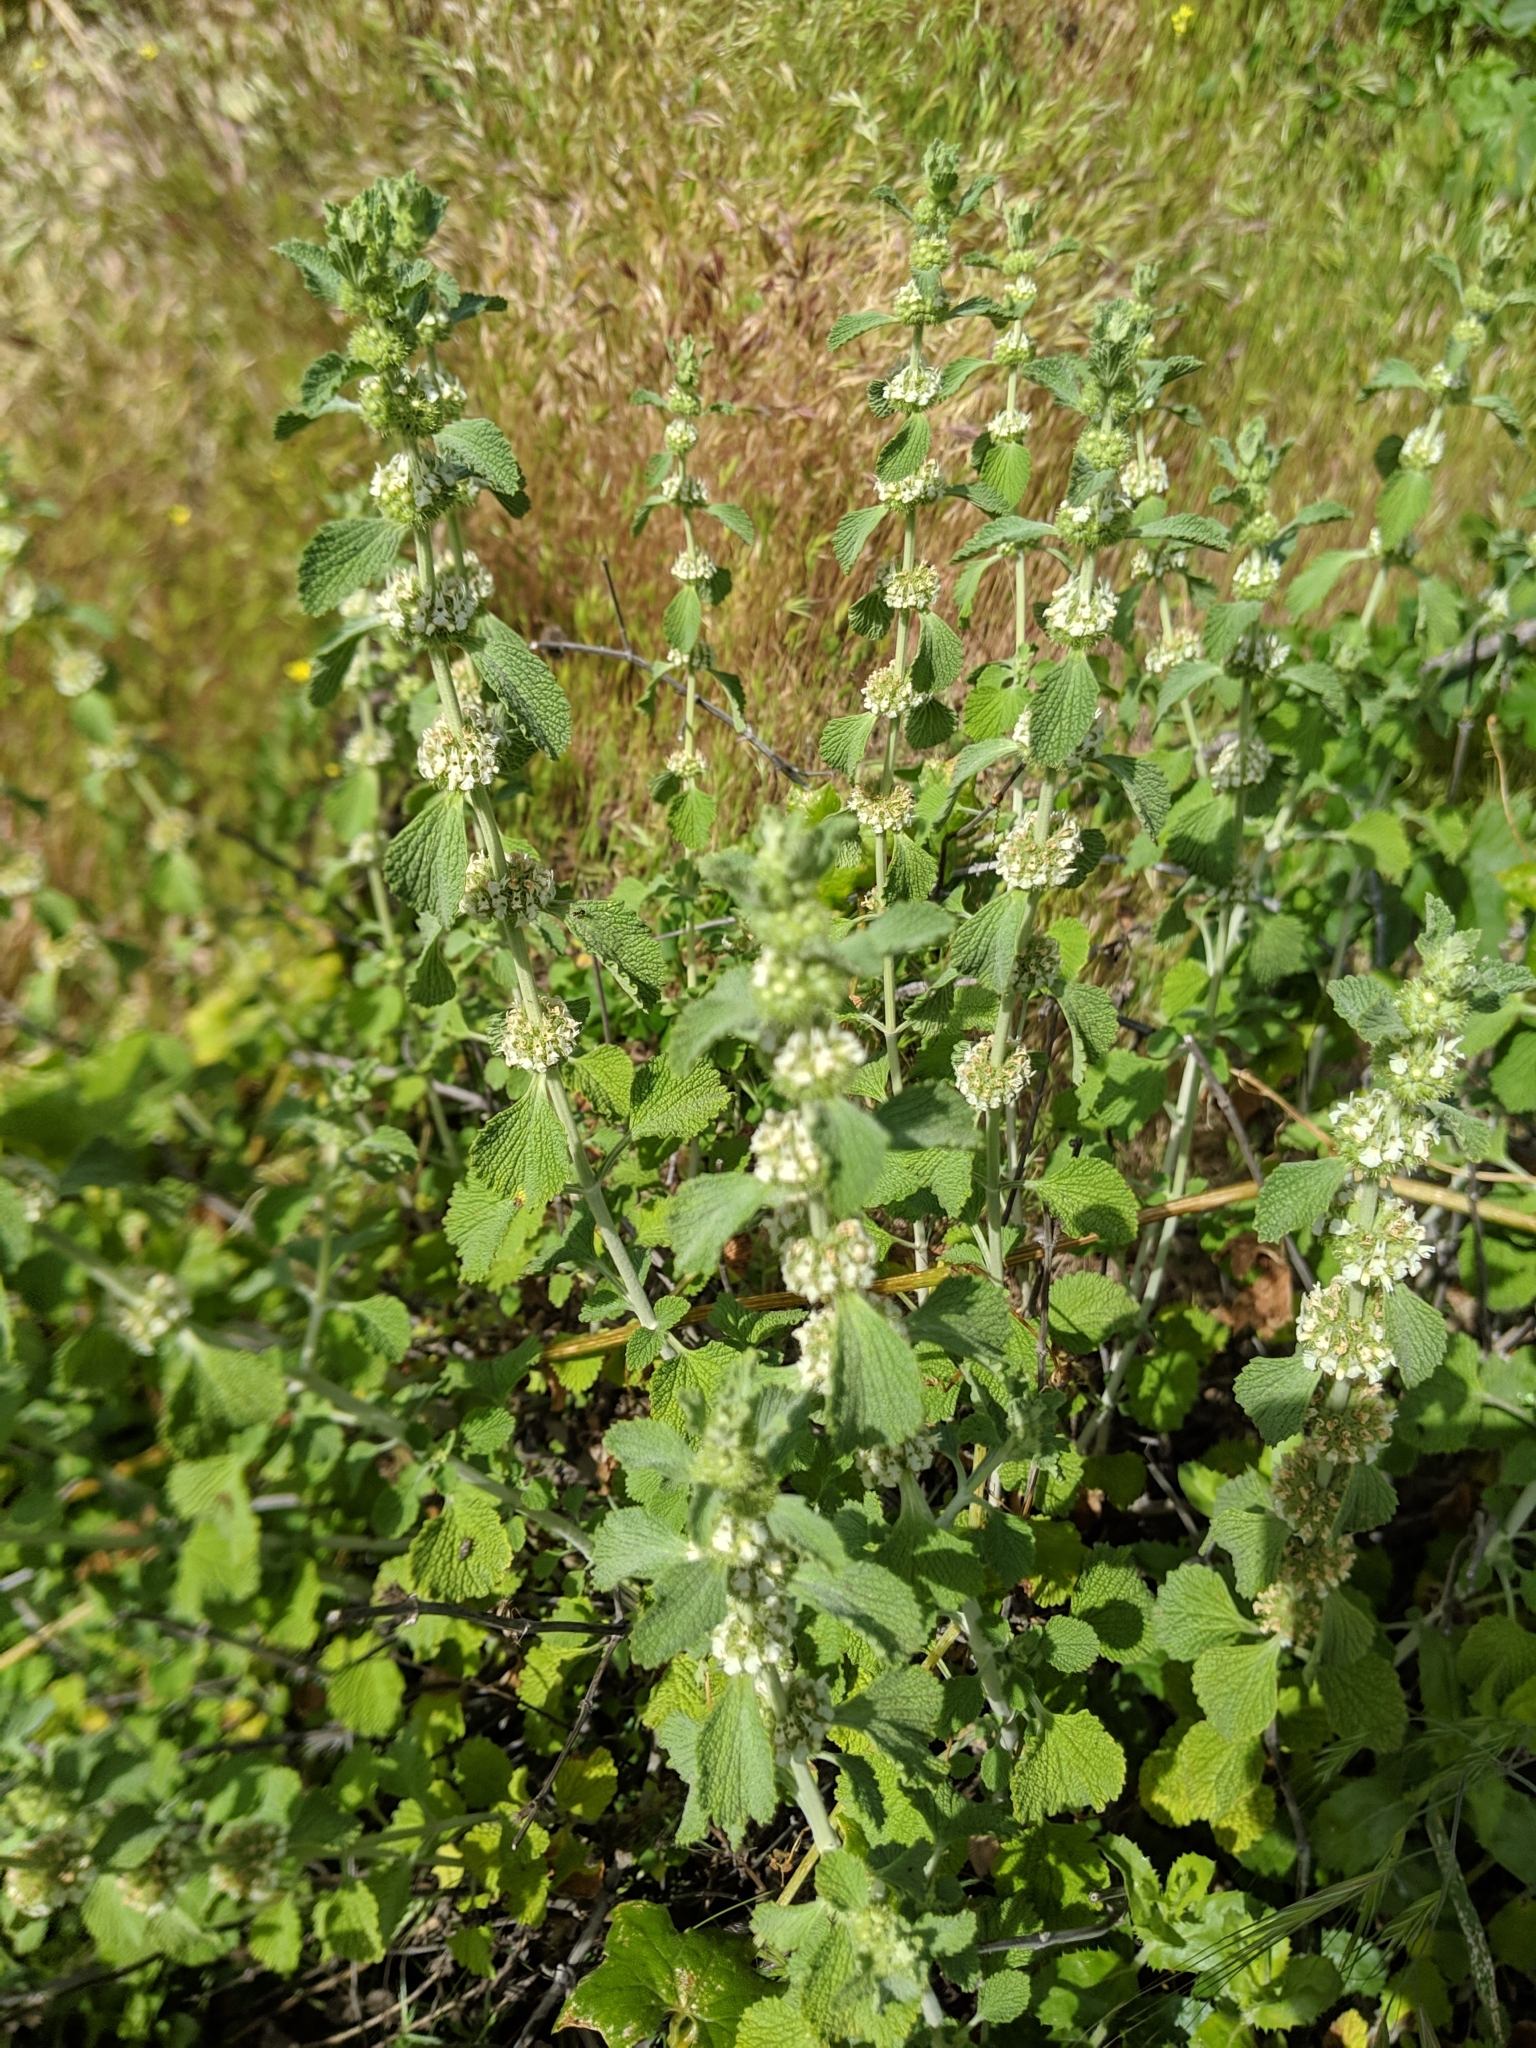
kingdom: Plantae
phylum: Tracheophyta
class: Magnoliopsida
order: Lamiales
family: Lamiaceae
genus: Marrubium
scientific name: Marrubium vulgare
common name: Horehound
